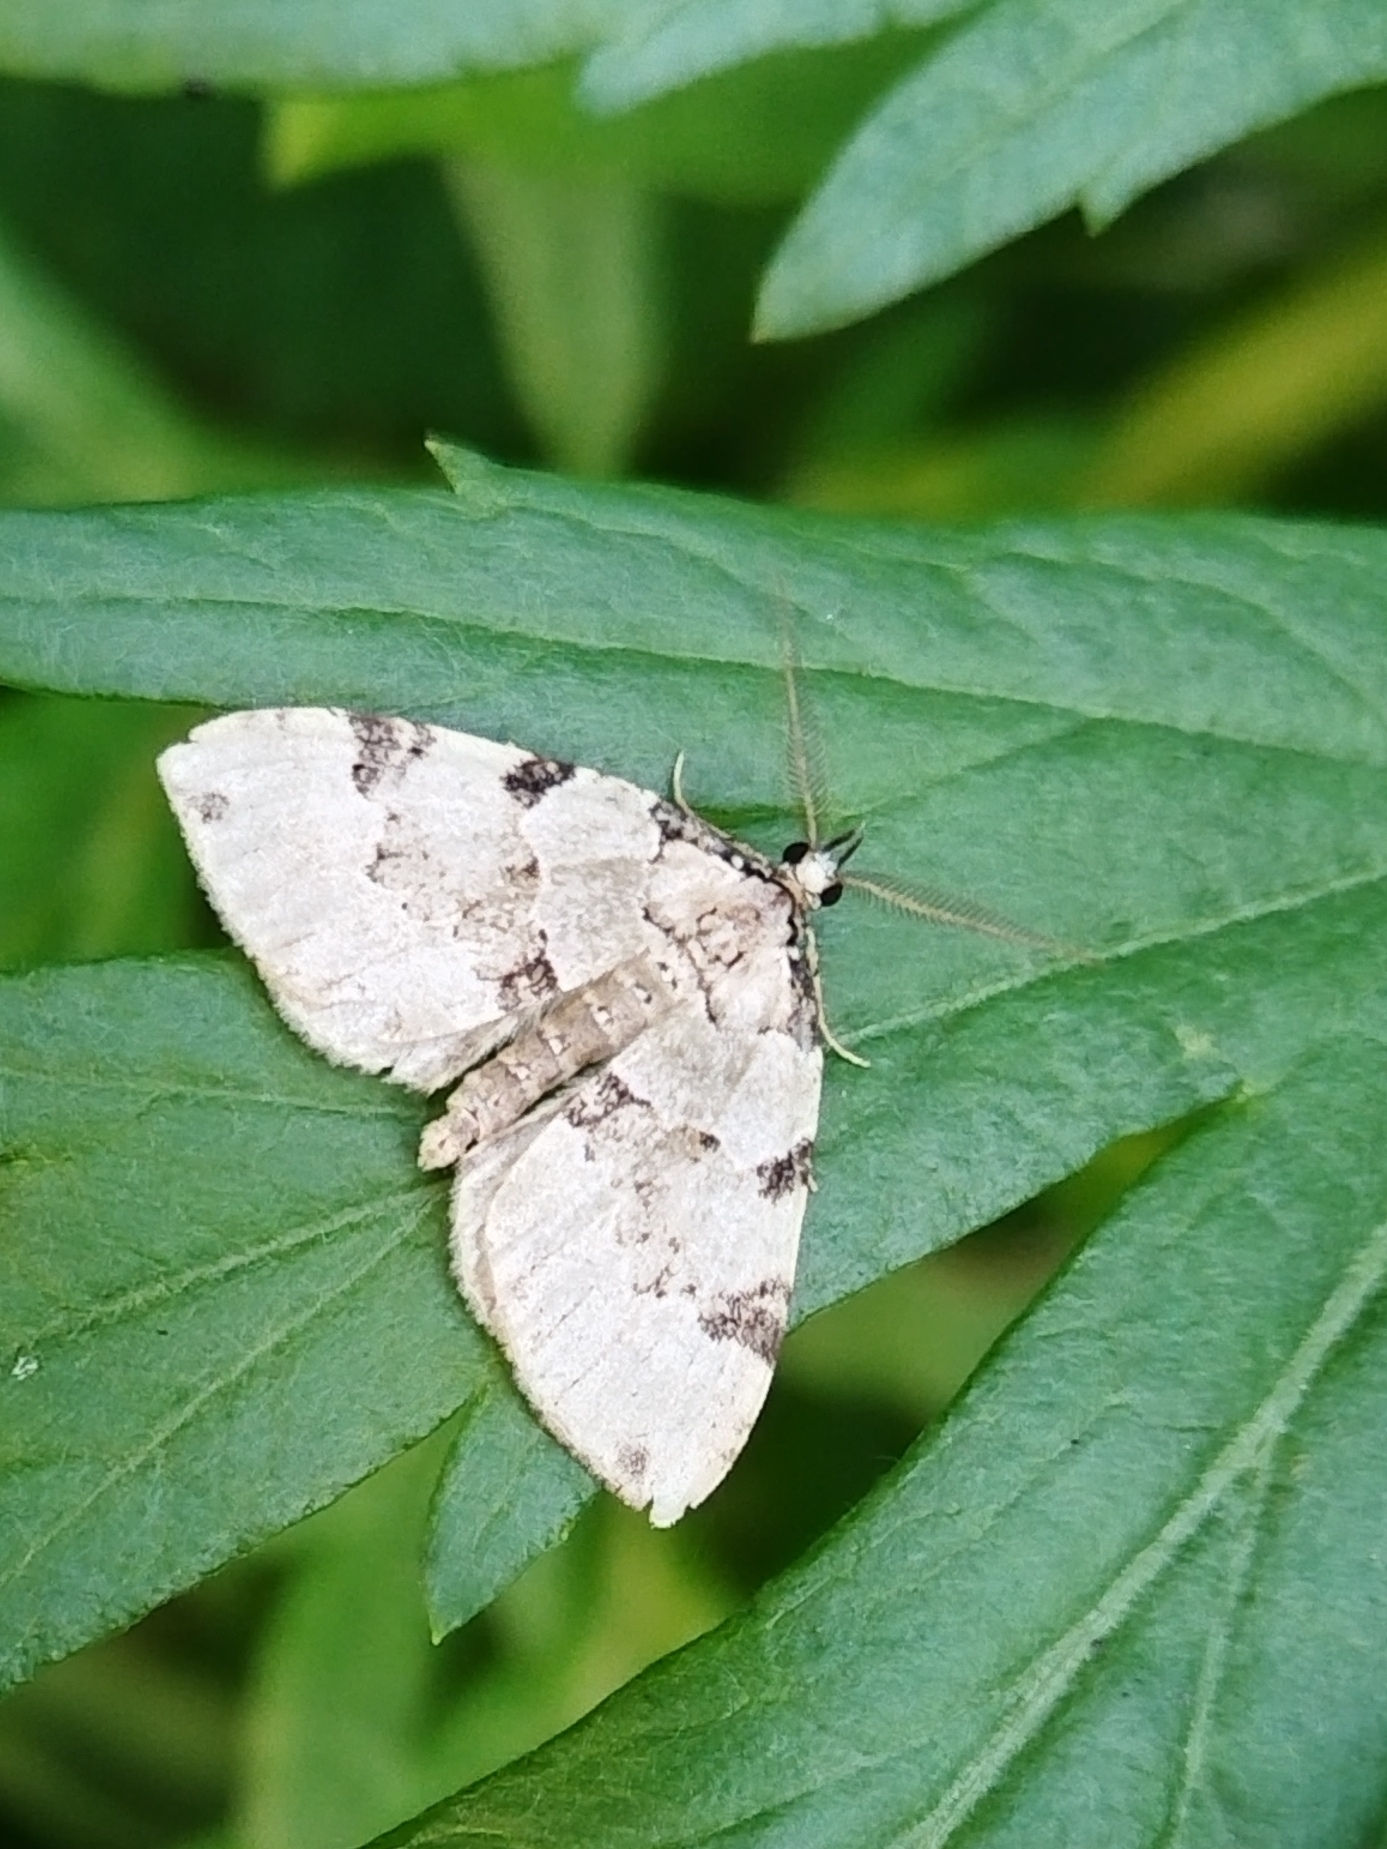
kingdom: Animalia
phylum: Arthropoda
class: Insecta
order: Lepidoptera
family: Geometridae
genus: Colostygia
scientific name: Colostygia pectinataria
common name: Green carpet
